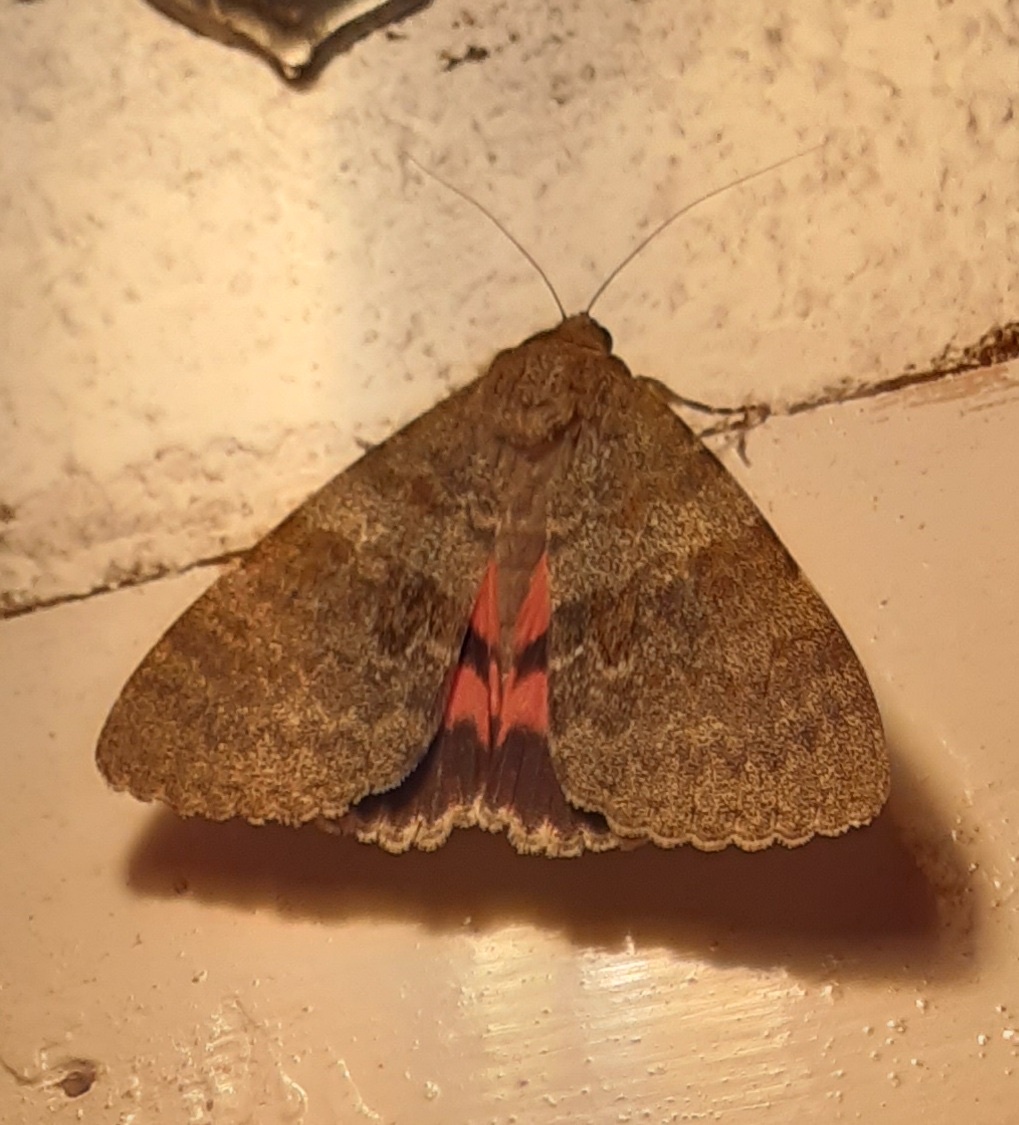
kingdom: Animalia
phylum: Arthropoda
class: Insecta
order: Lepidoptera
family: Erebidae
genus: Catocala
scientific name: Catocala elocata
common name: French red underwing
